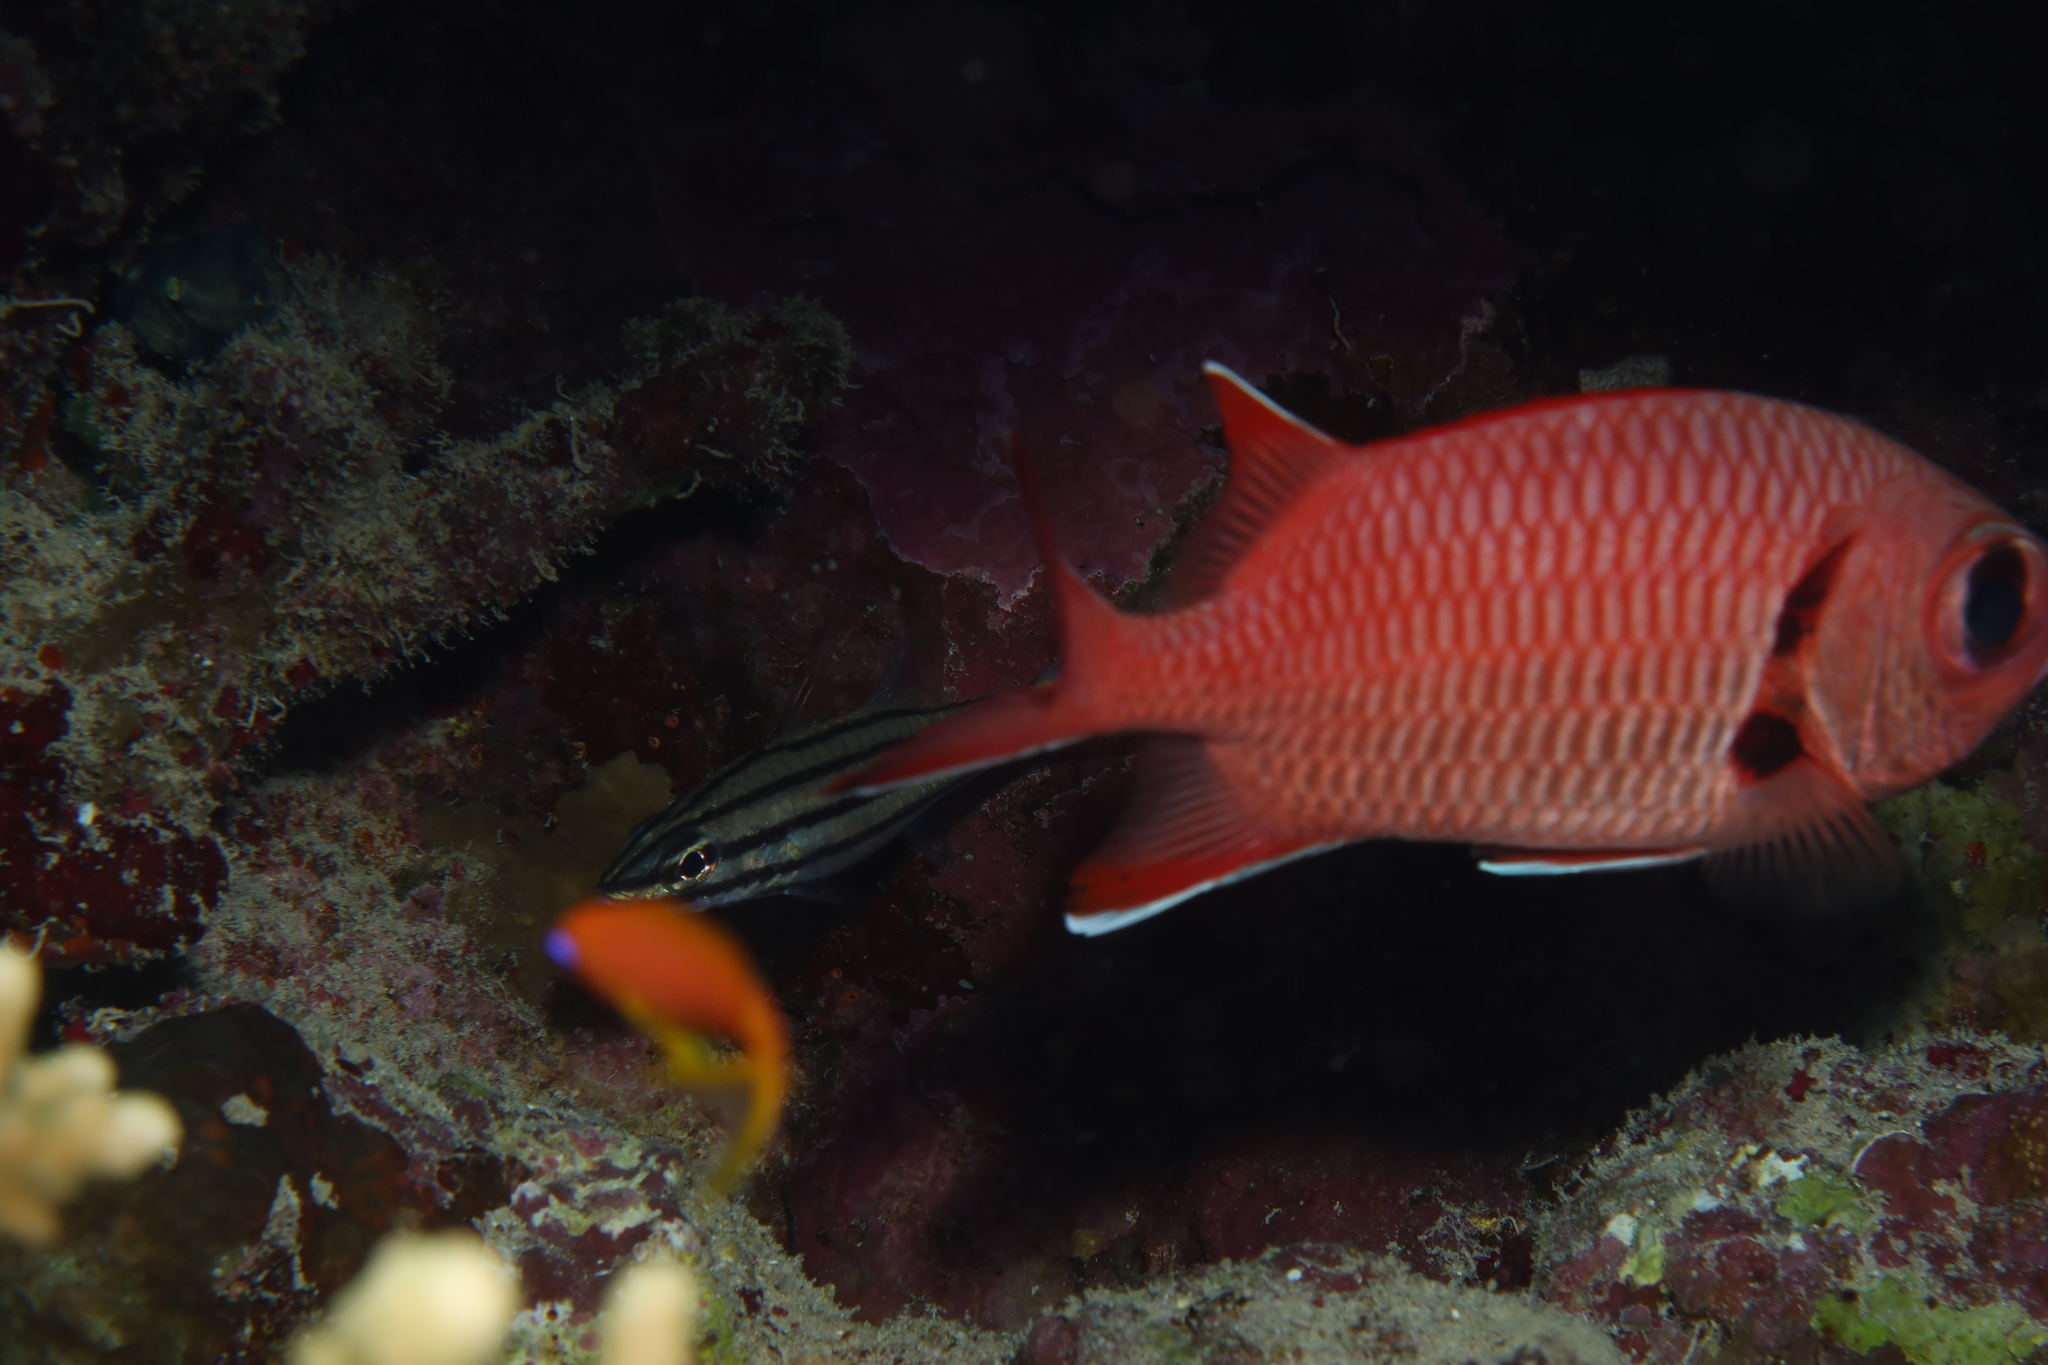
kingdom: Animalia
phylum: Chordata
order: Beryciformes
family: Holocentridae
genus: Myripristis
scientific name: Myripristis murdjan
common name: Big-eye soldierfish
